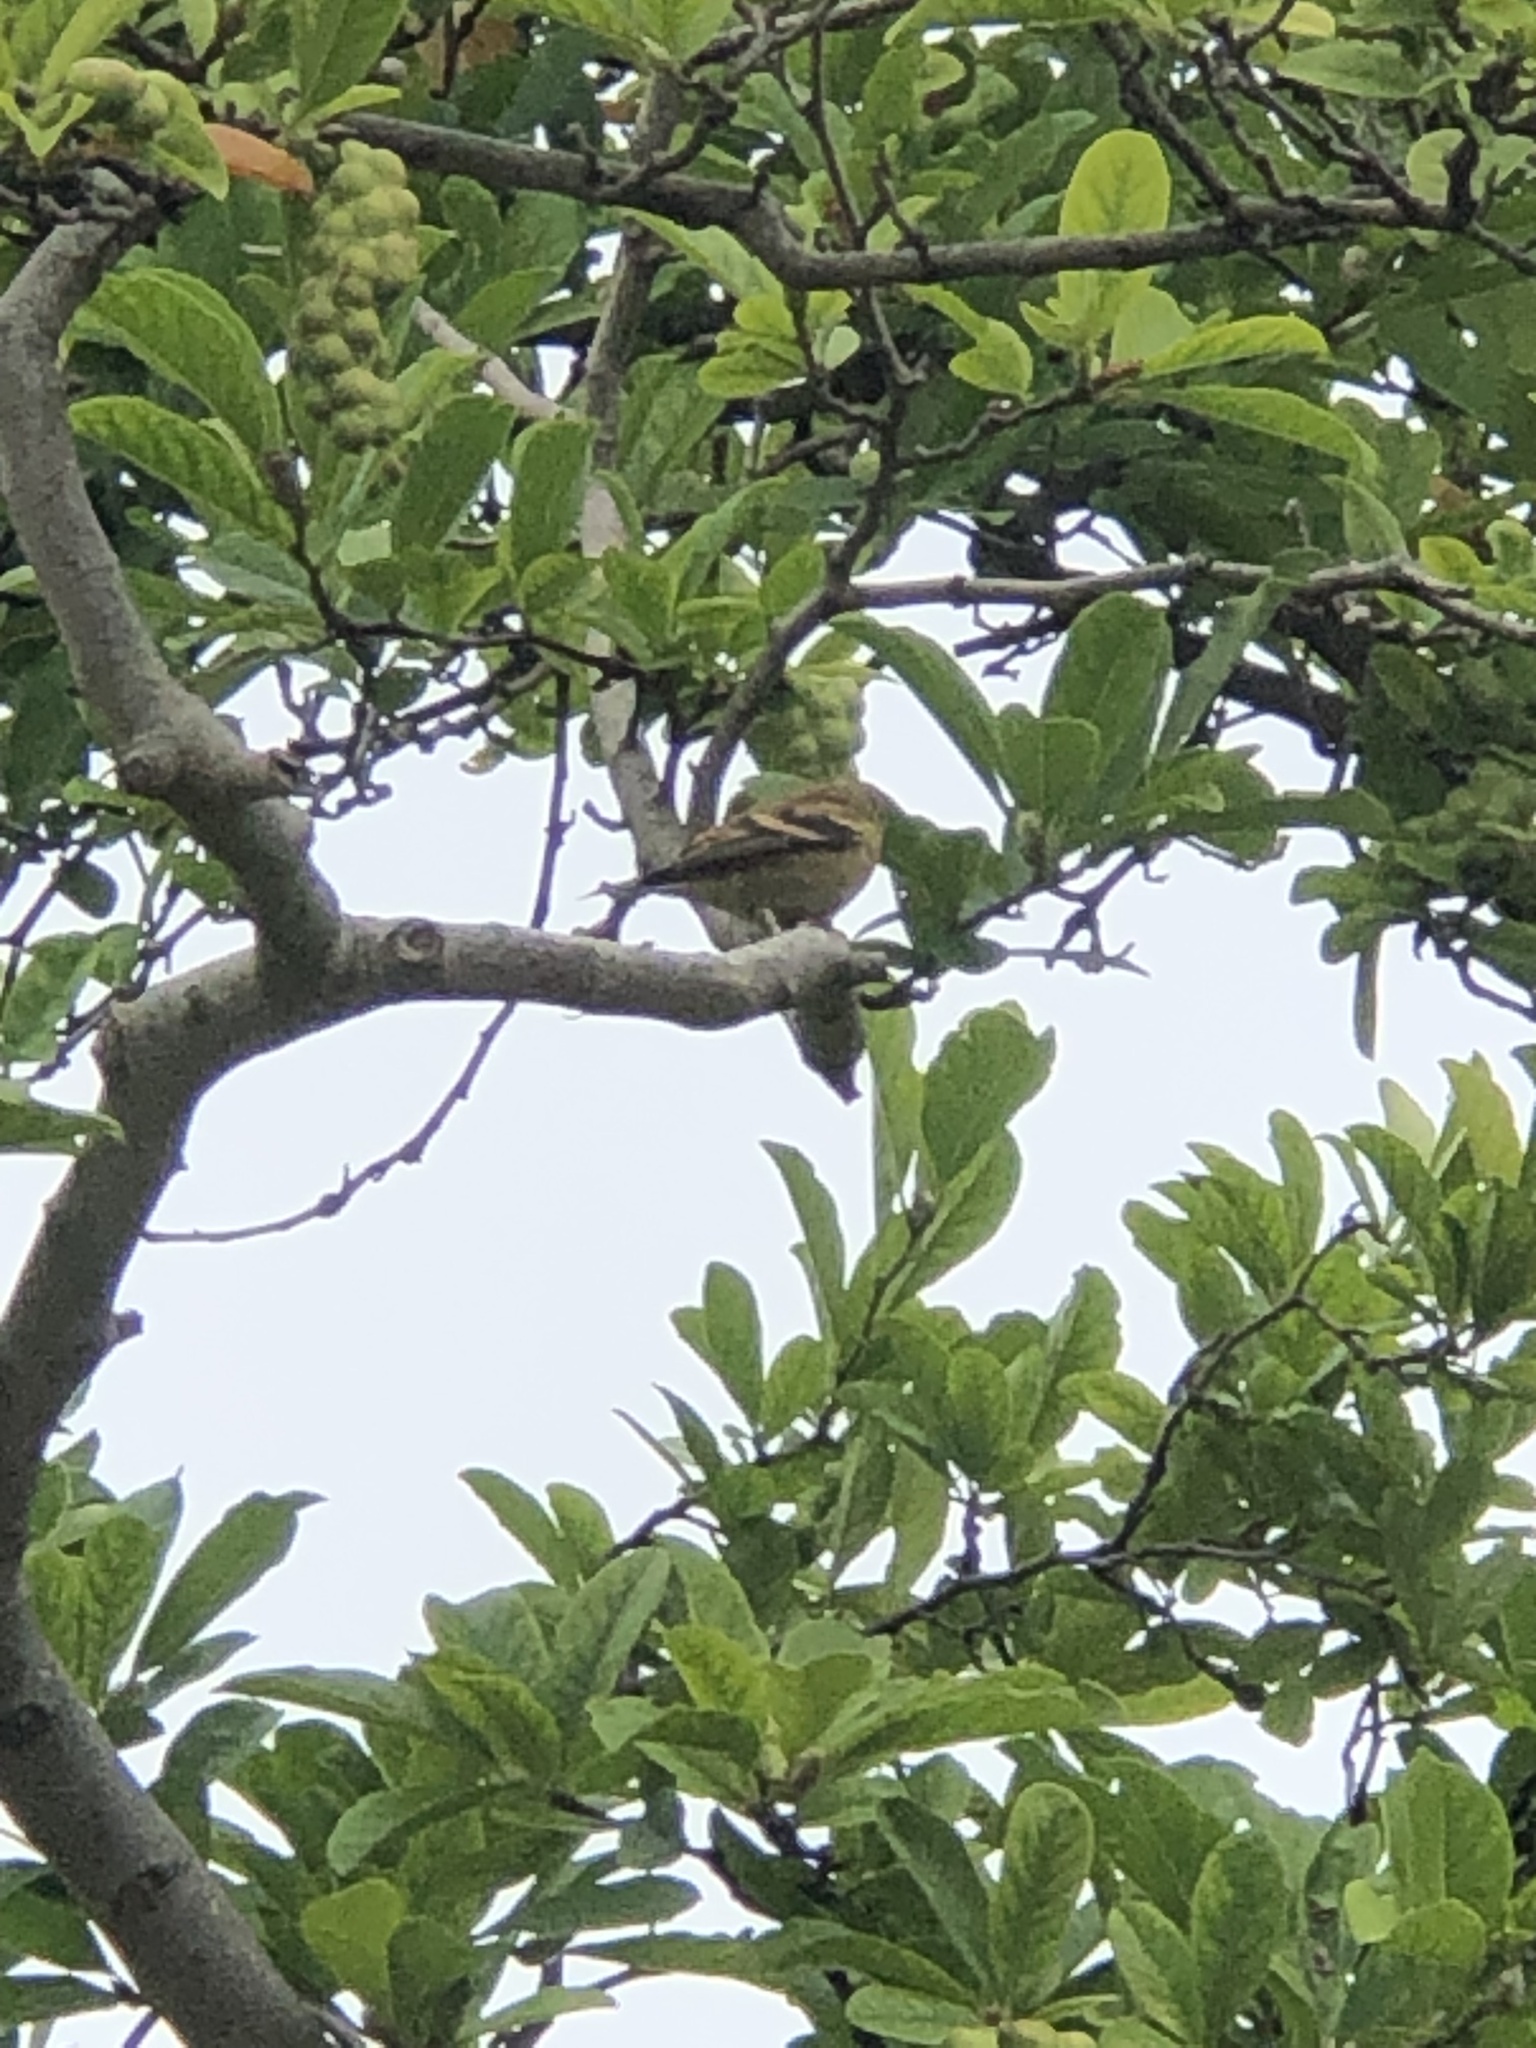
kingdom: Animalia
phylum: Chordata
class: Aves
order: Passeriformes
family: Fringillidae
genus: Spinus
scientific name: Spinus tristis
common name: American goldfinch
